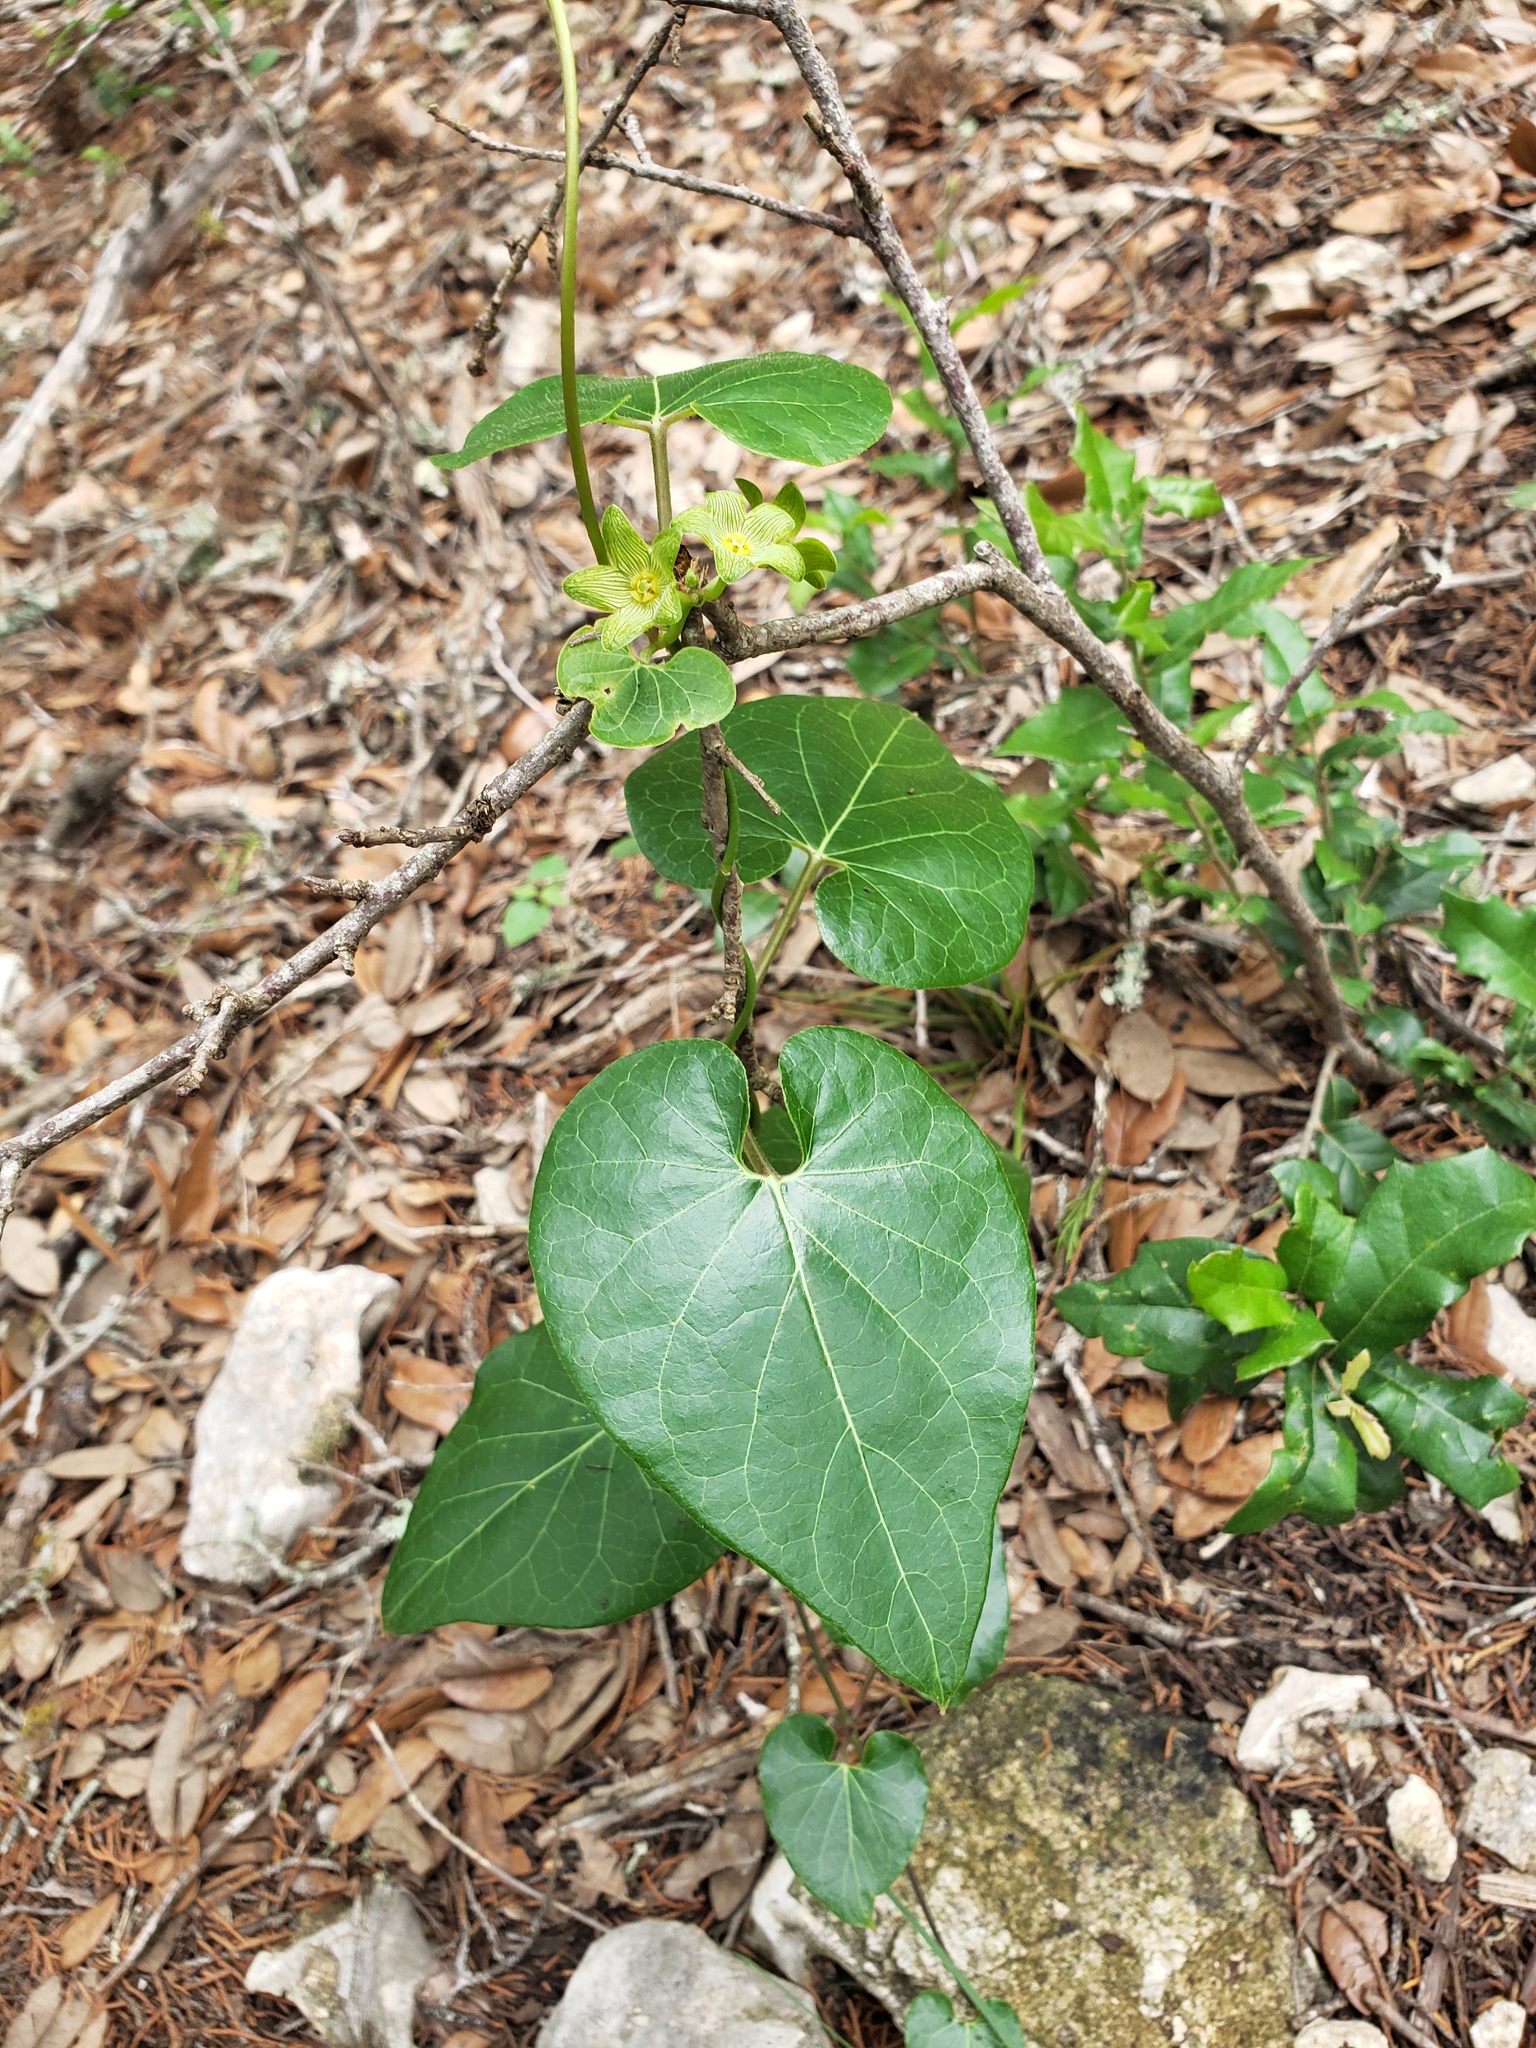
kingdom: Plantae
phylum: Tracheophyta
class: Magnoliopsida
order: Gentianales
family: Apocynaceae
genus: Matelea
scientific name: Matelea edwardsensis
